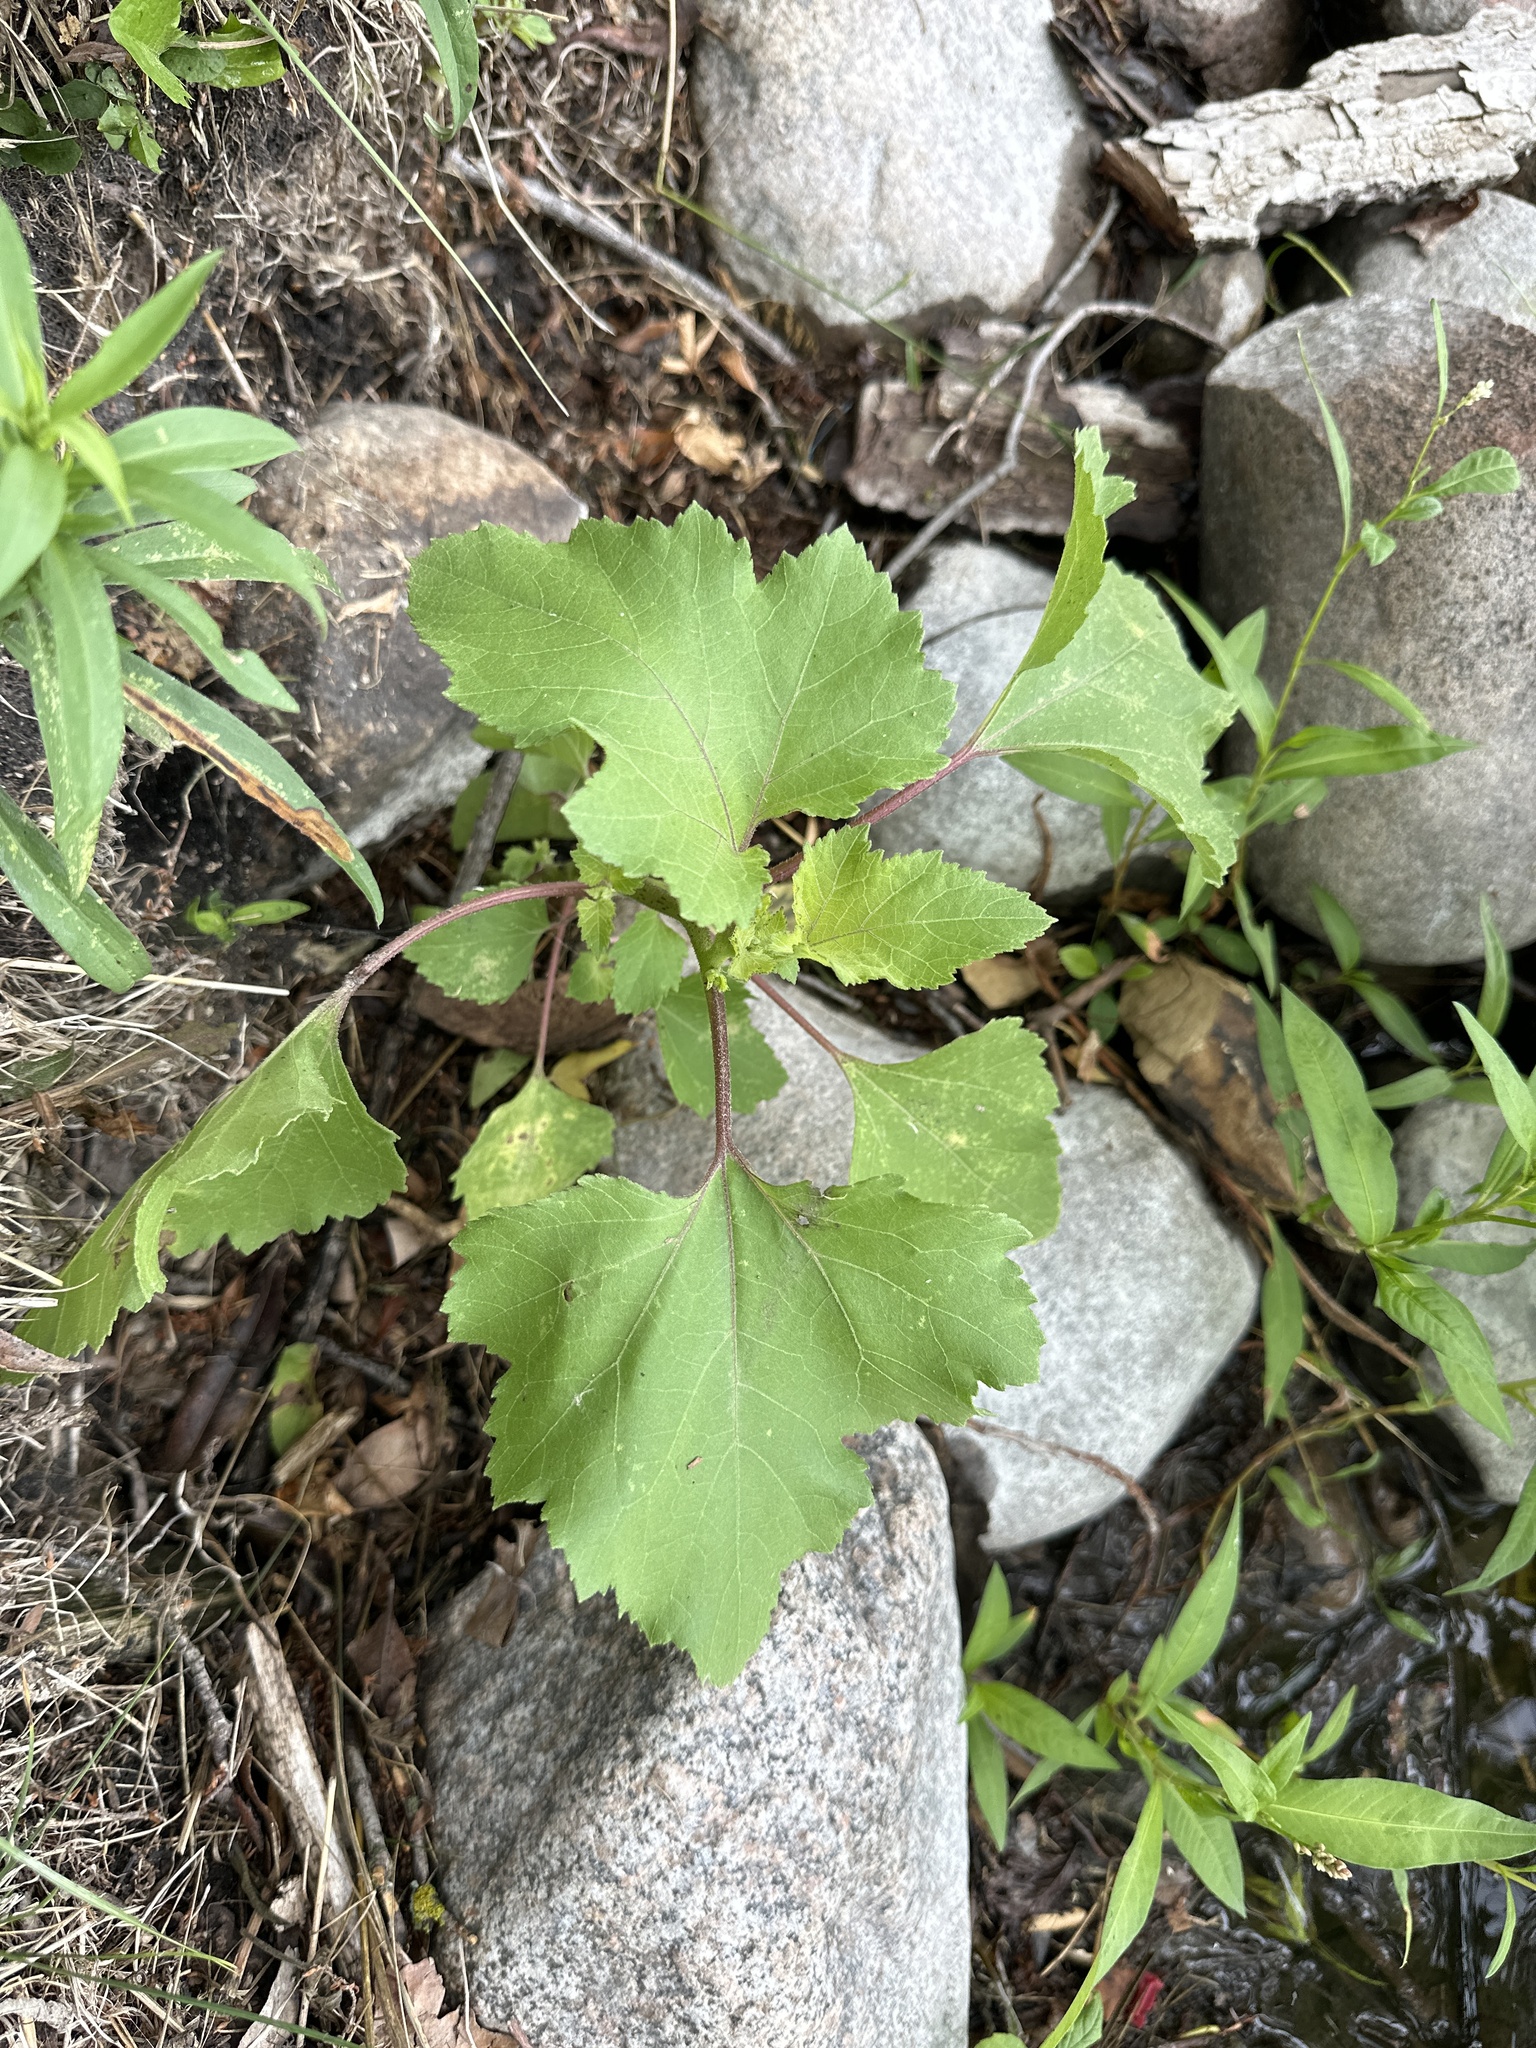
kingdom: Plantae
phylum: Tracheophyta
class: Magnoliopsida
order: Asterales
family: Asteraceae
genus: Xanthium
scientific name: Xanthium strumarium
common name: Rough cocklebur
